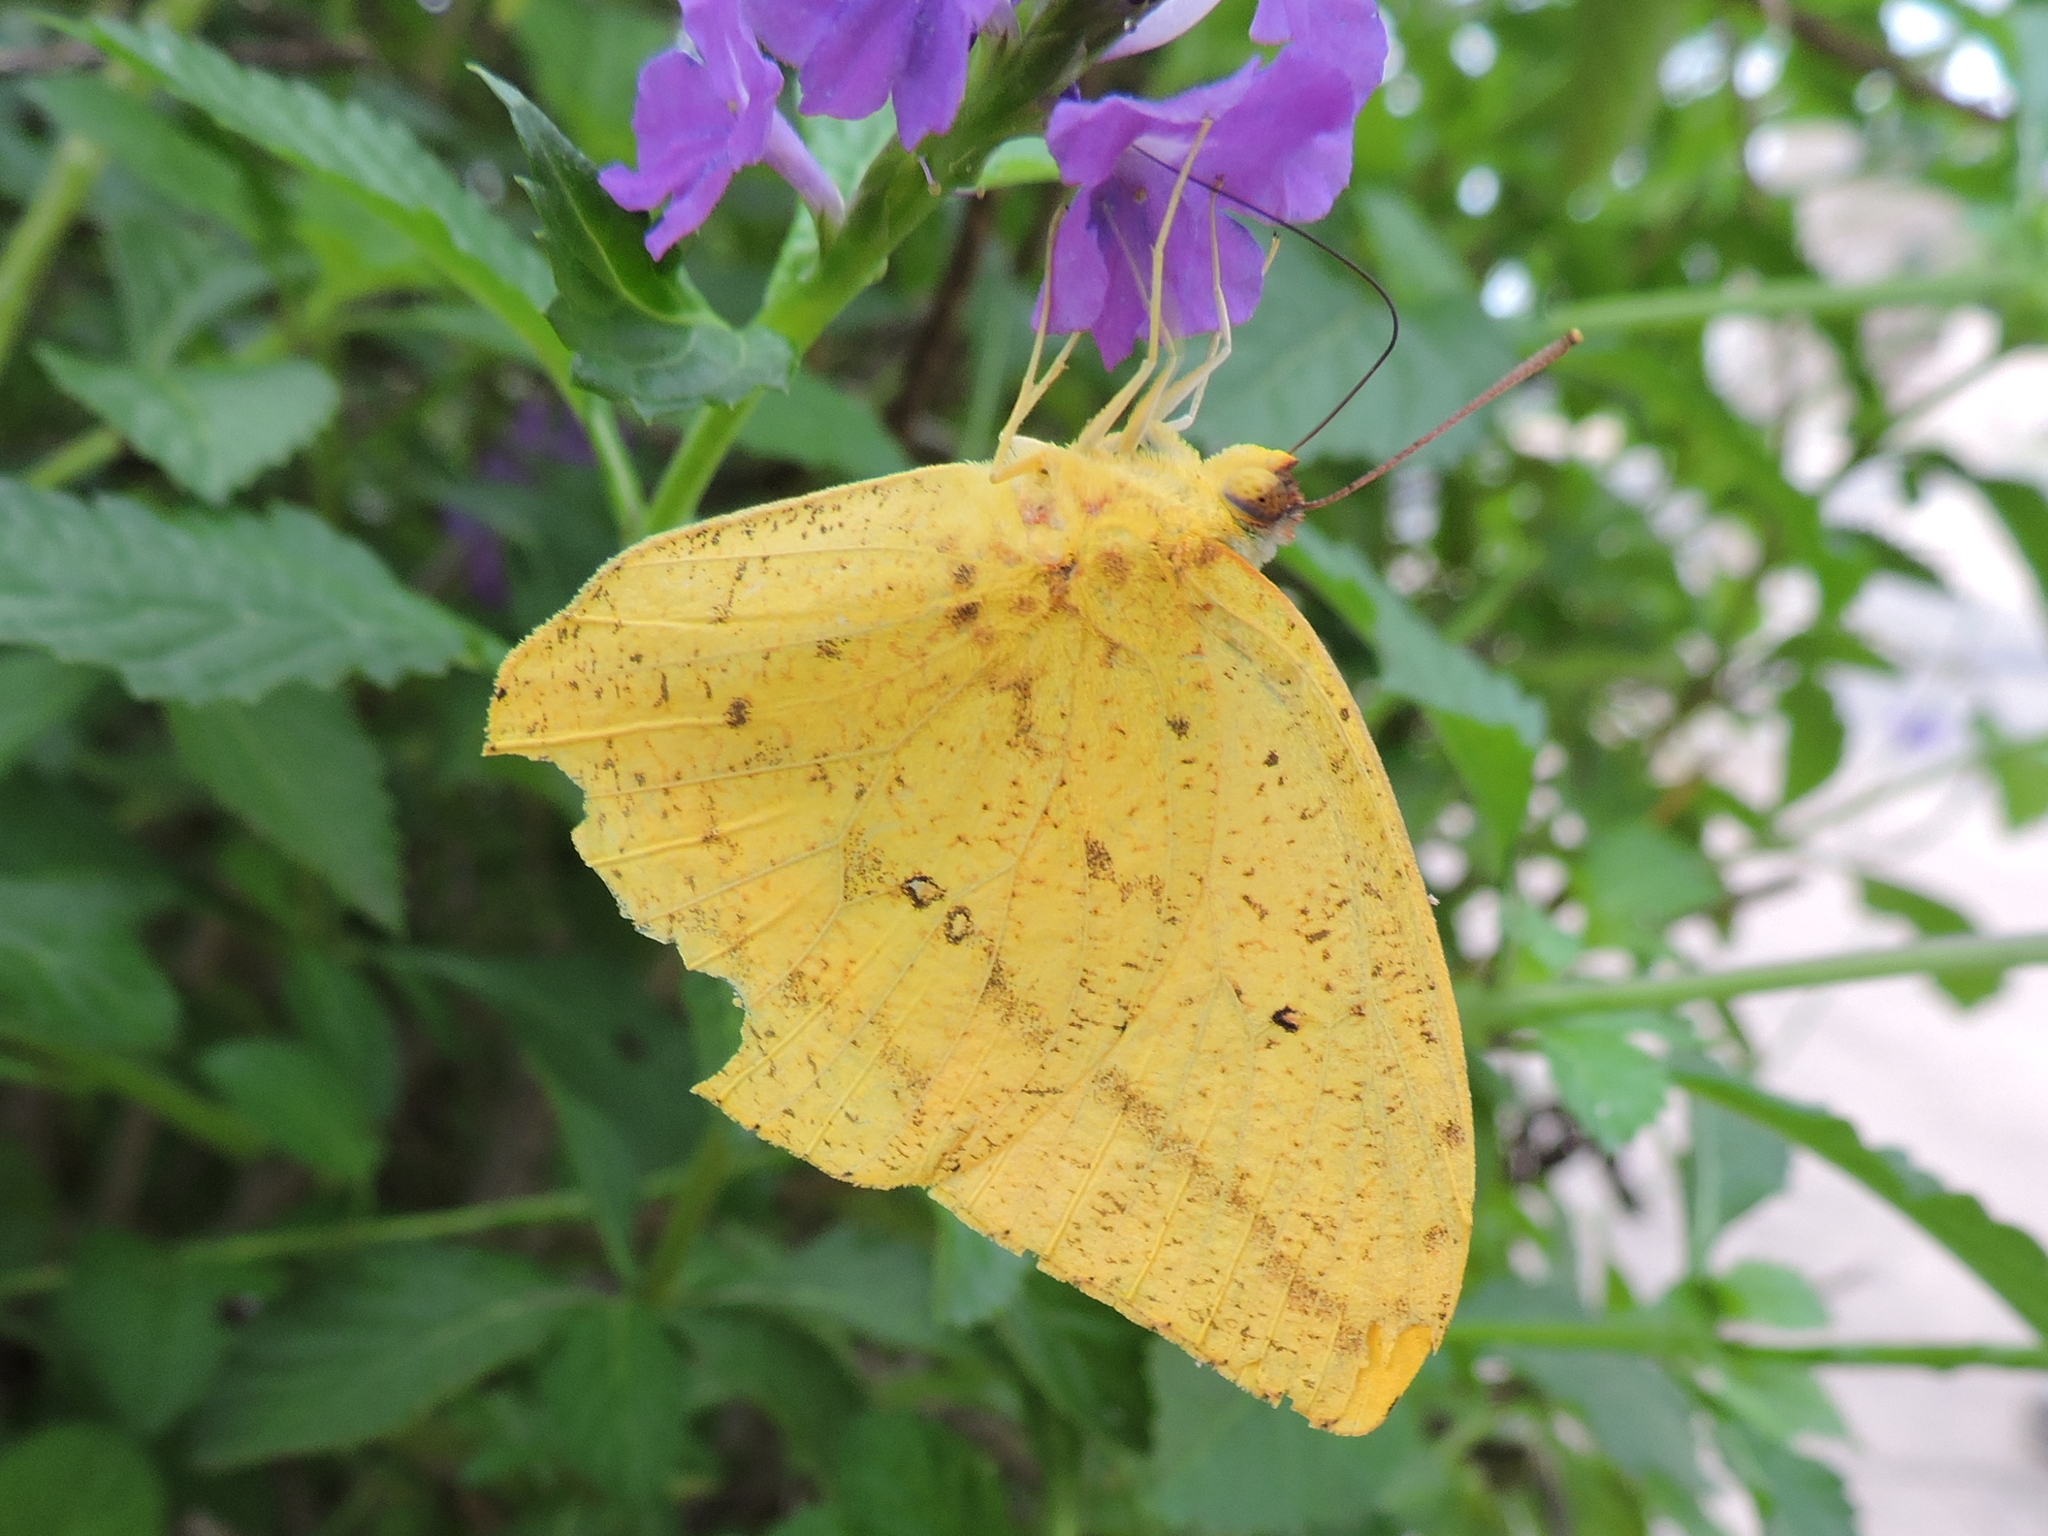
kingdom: Animalia
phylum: Arthropoda
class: Insecta
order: Lepidoptera
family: Pieridae
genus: Phoebis
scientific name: Phoebis agarithe
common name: Large orange sulphur
